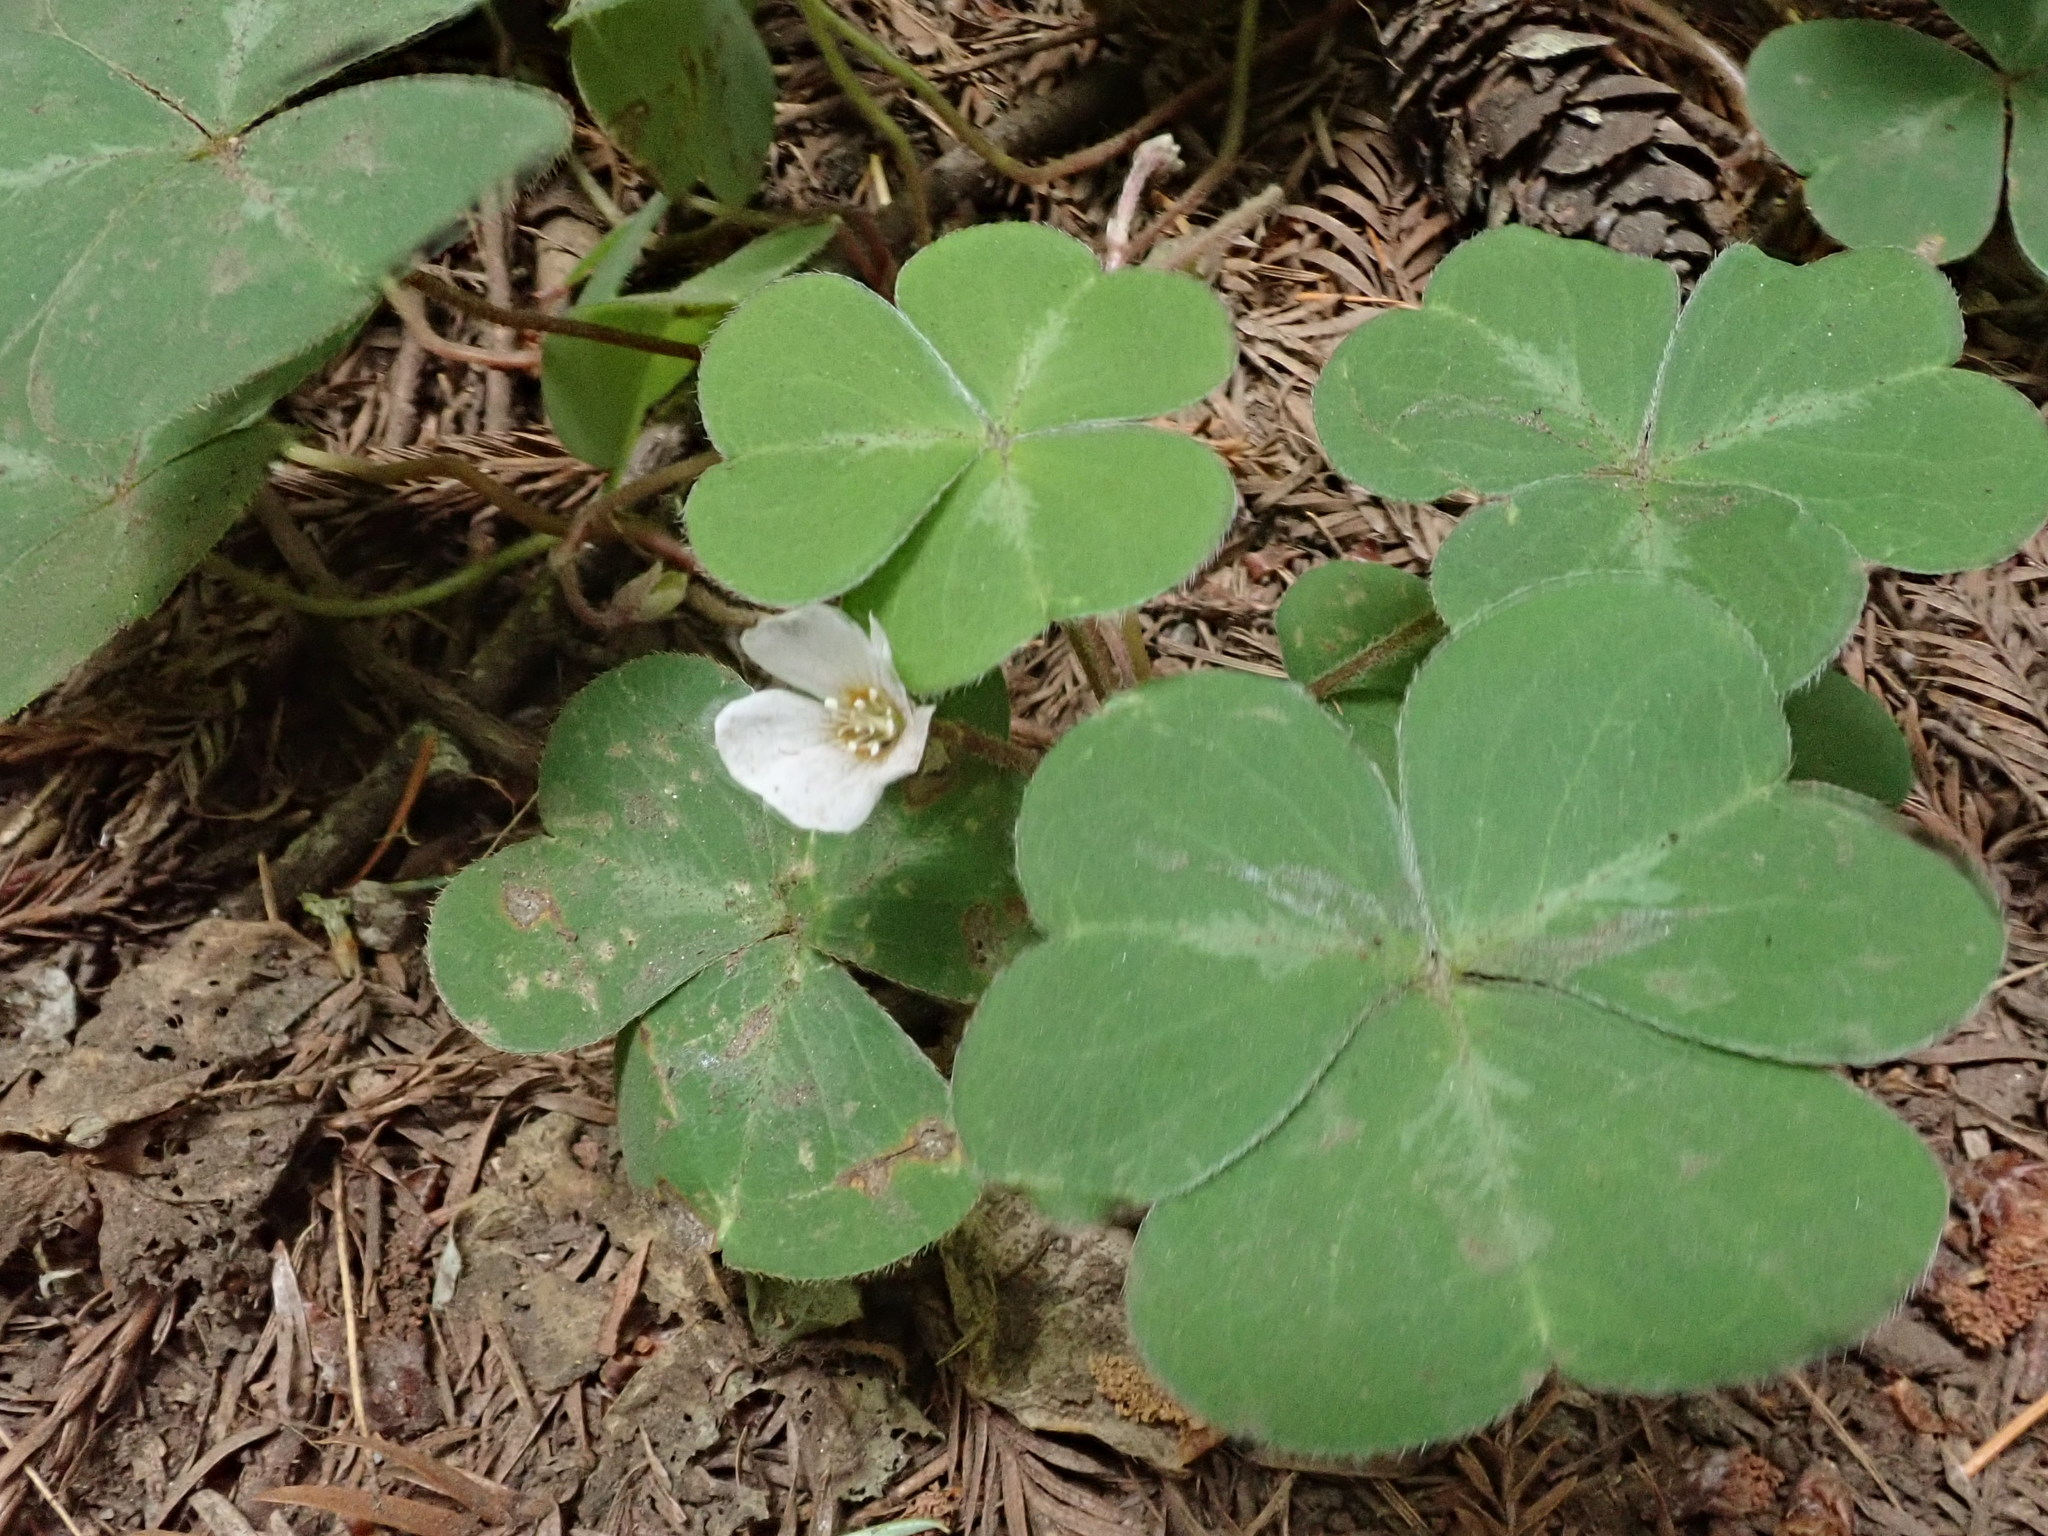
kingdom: Plantae
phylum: Tracheophyta
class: Magnoliopsida
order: Oxalidales
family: Oxalidaceae
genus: Oxalis
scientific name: Oxalis oregana
